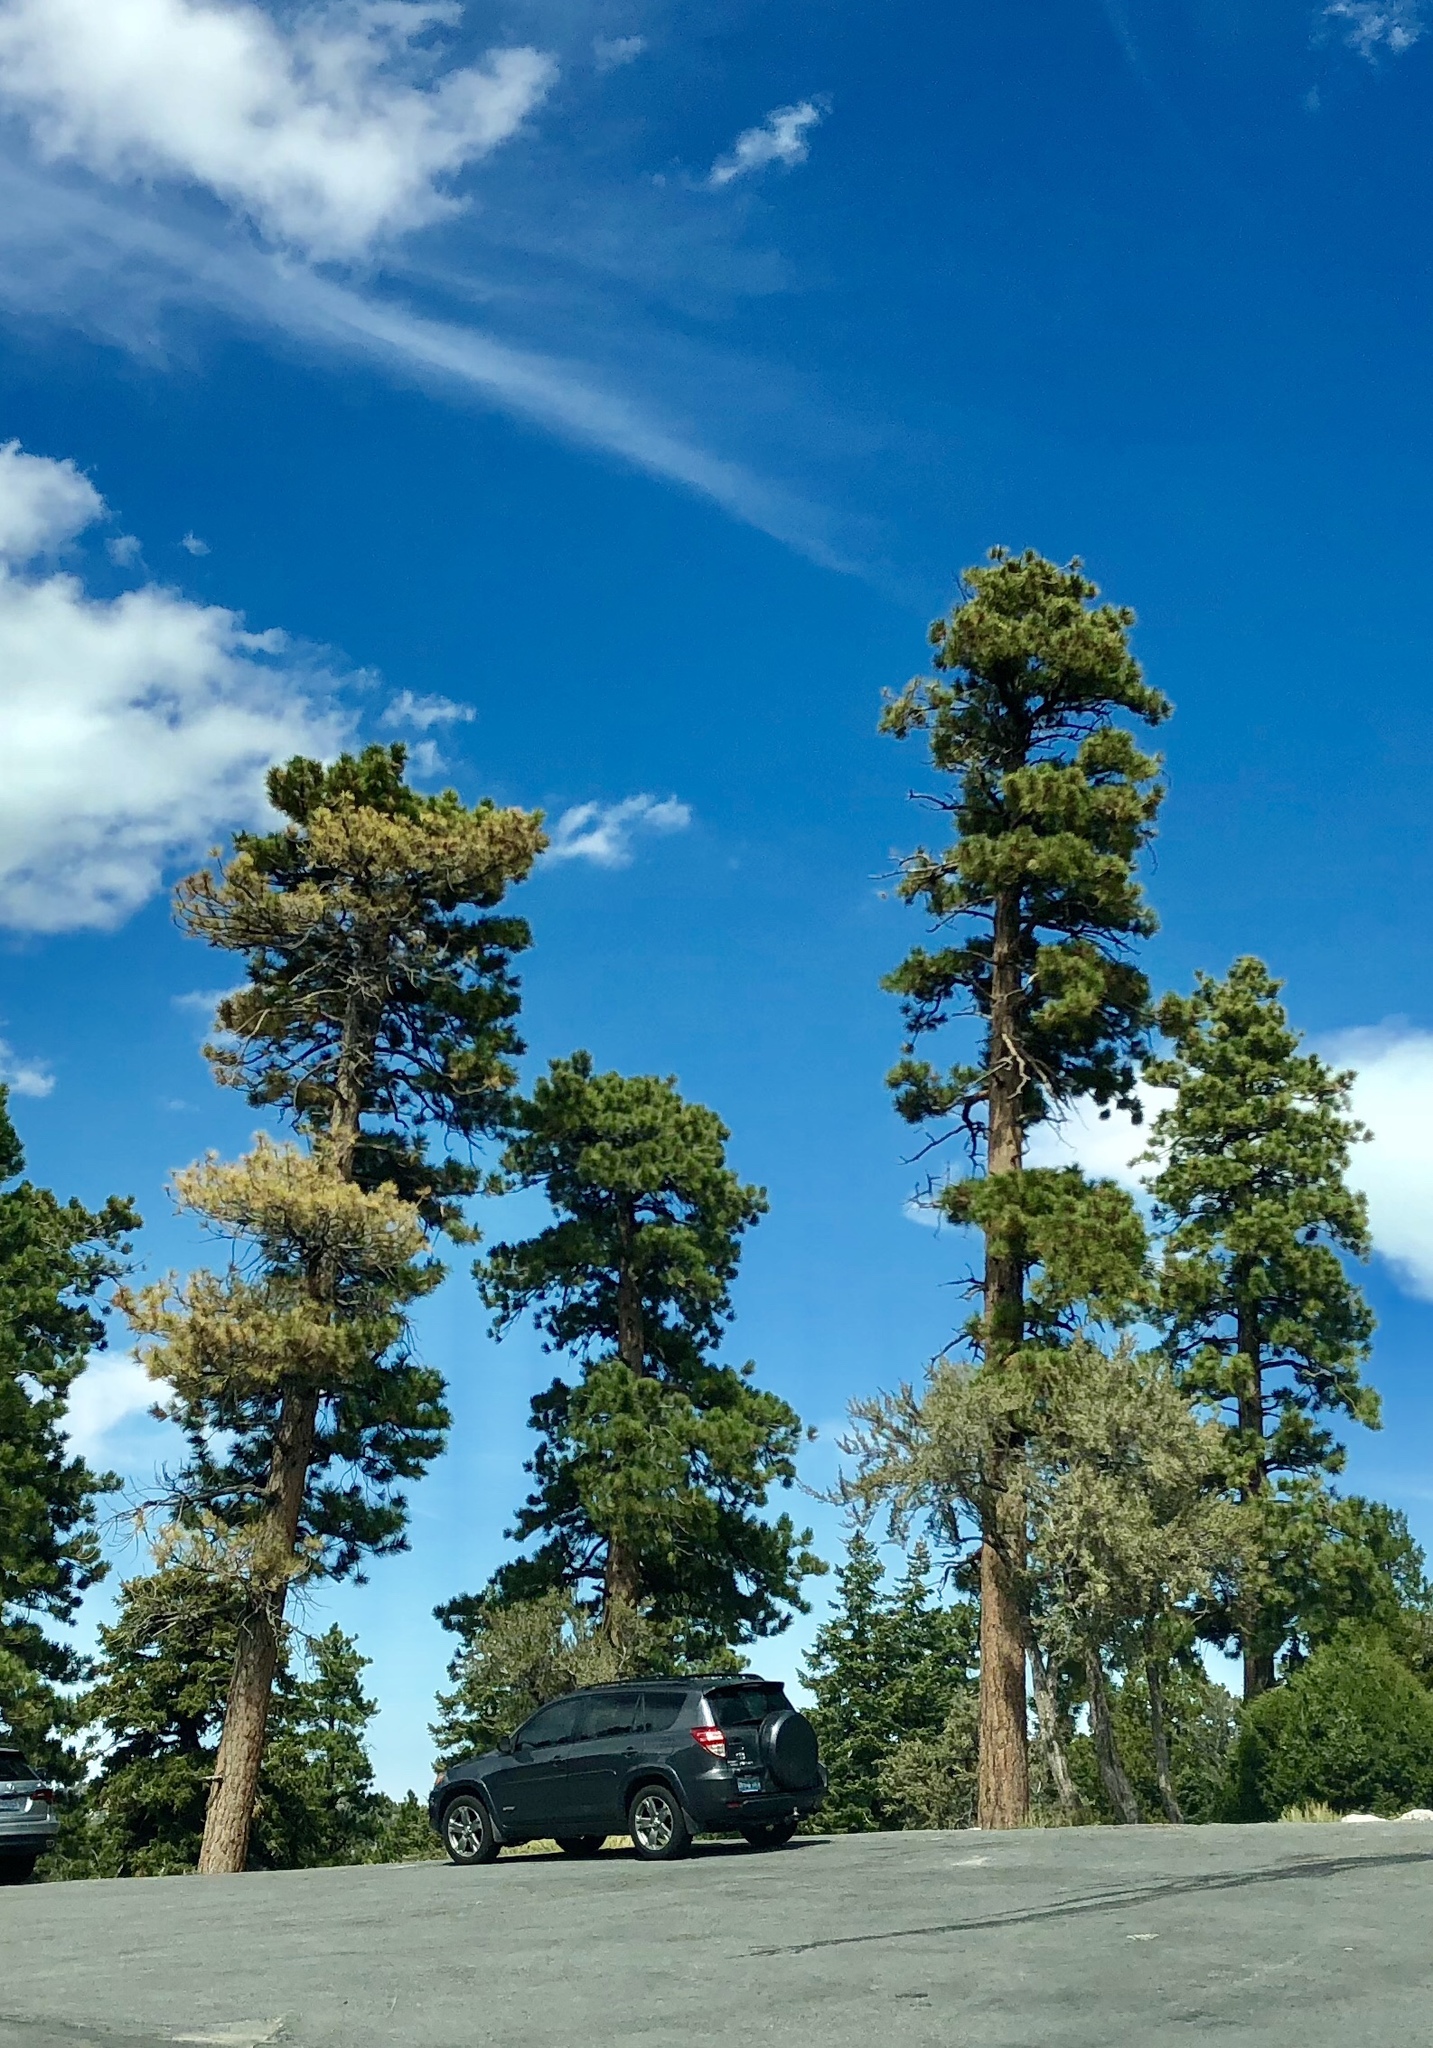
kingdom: Plantae
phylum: Tracheophyta
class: Pinopsida
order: Pinales
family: Pinaceae
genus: Pinus
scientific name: Pinus ponderosa
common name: Western yellow-pine
